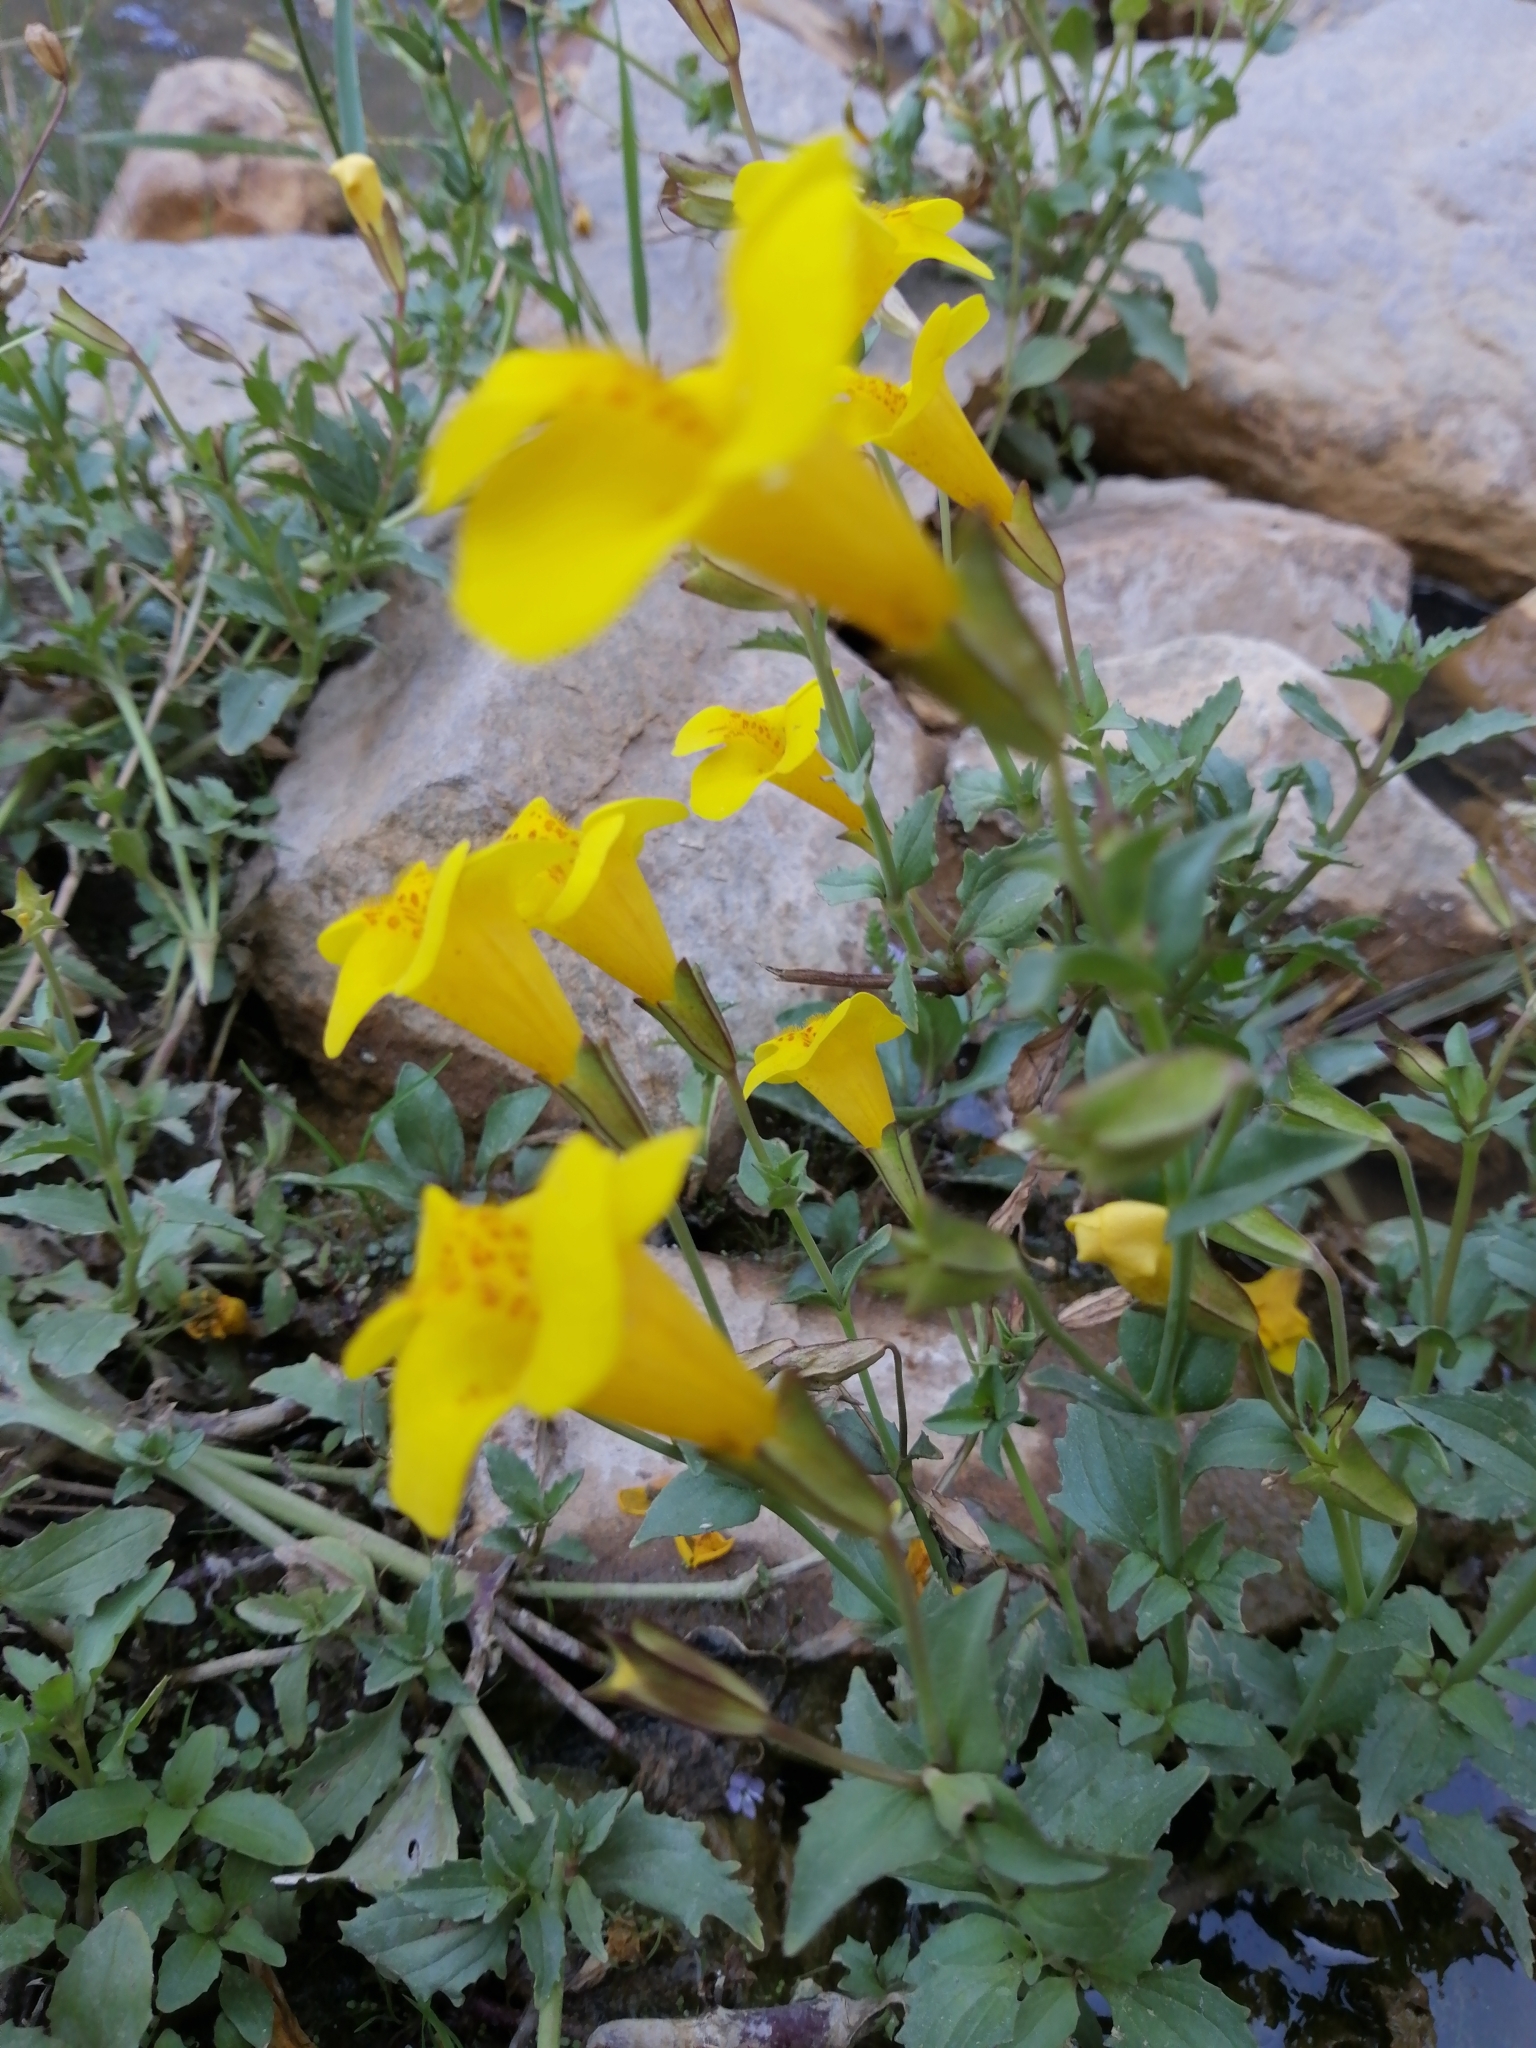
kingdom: Plantae
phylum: Tracheophyta
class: Magnoliopsida
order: Lamiales
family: Phrymaceae
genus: Erythranthe
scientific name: Erythranthe lutea
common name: Yellow monkey-flower
